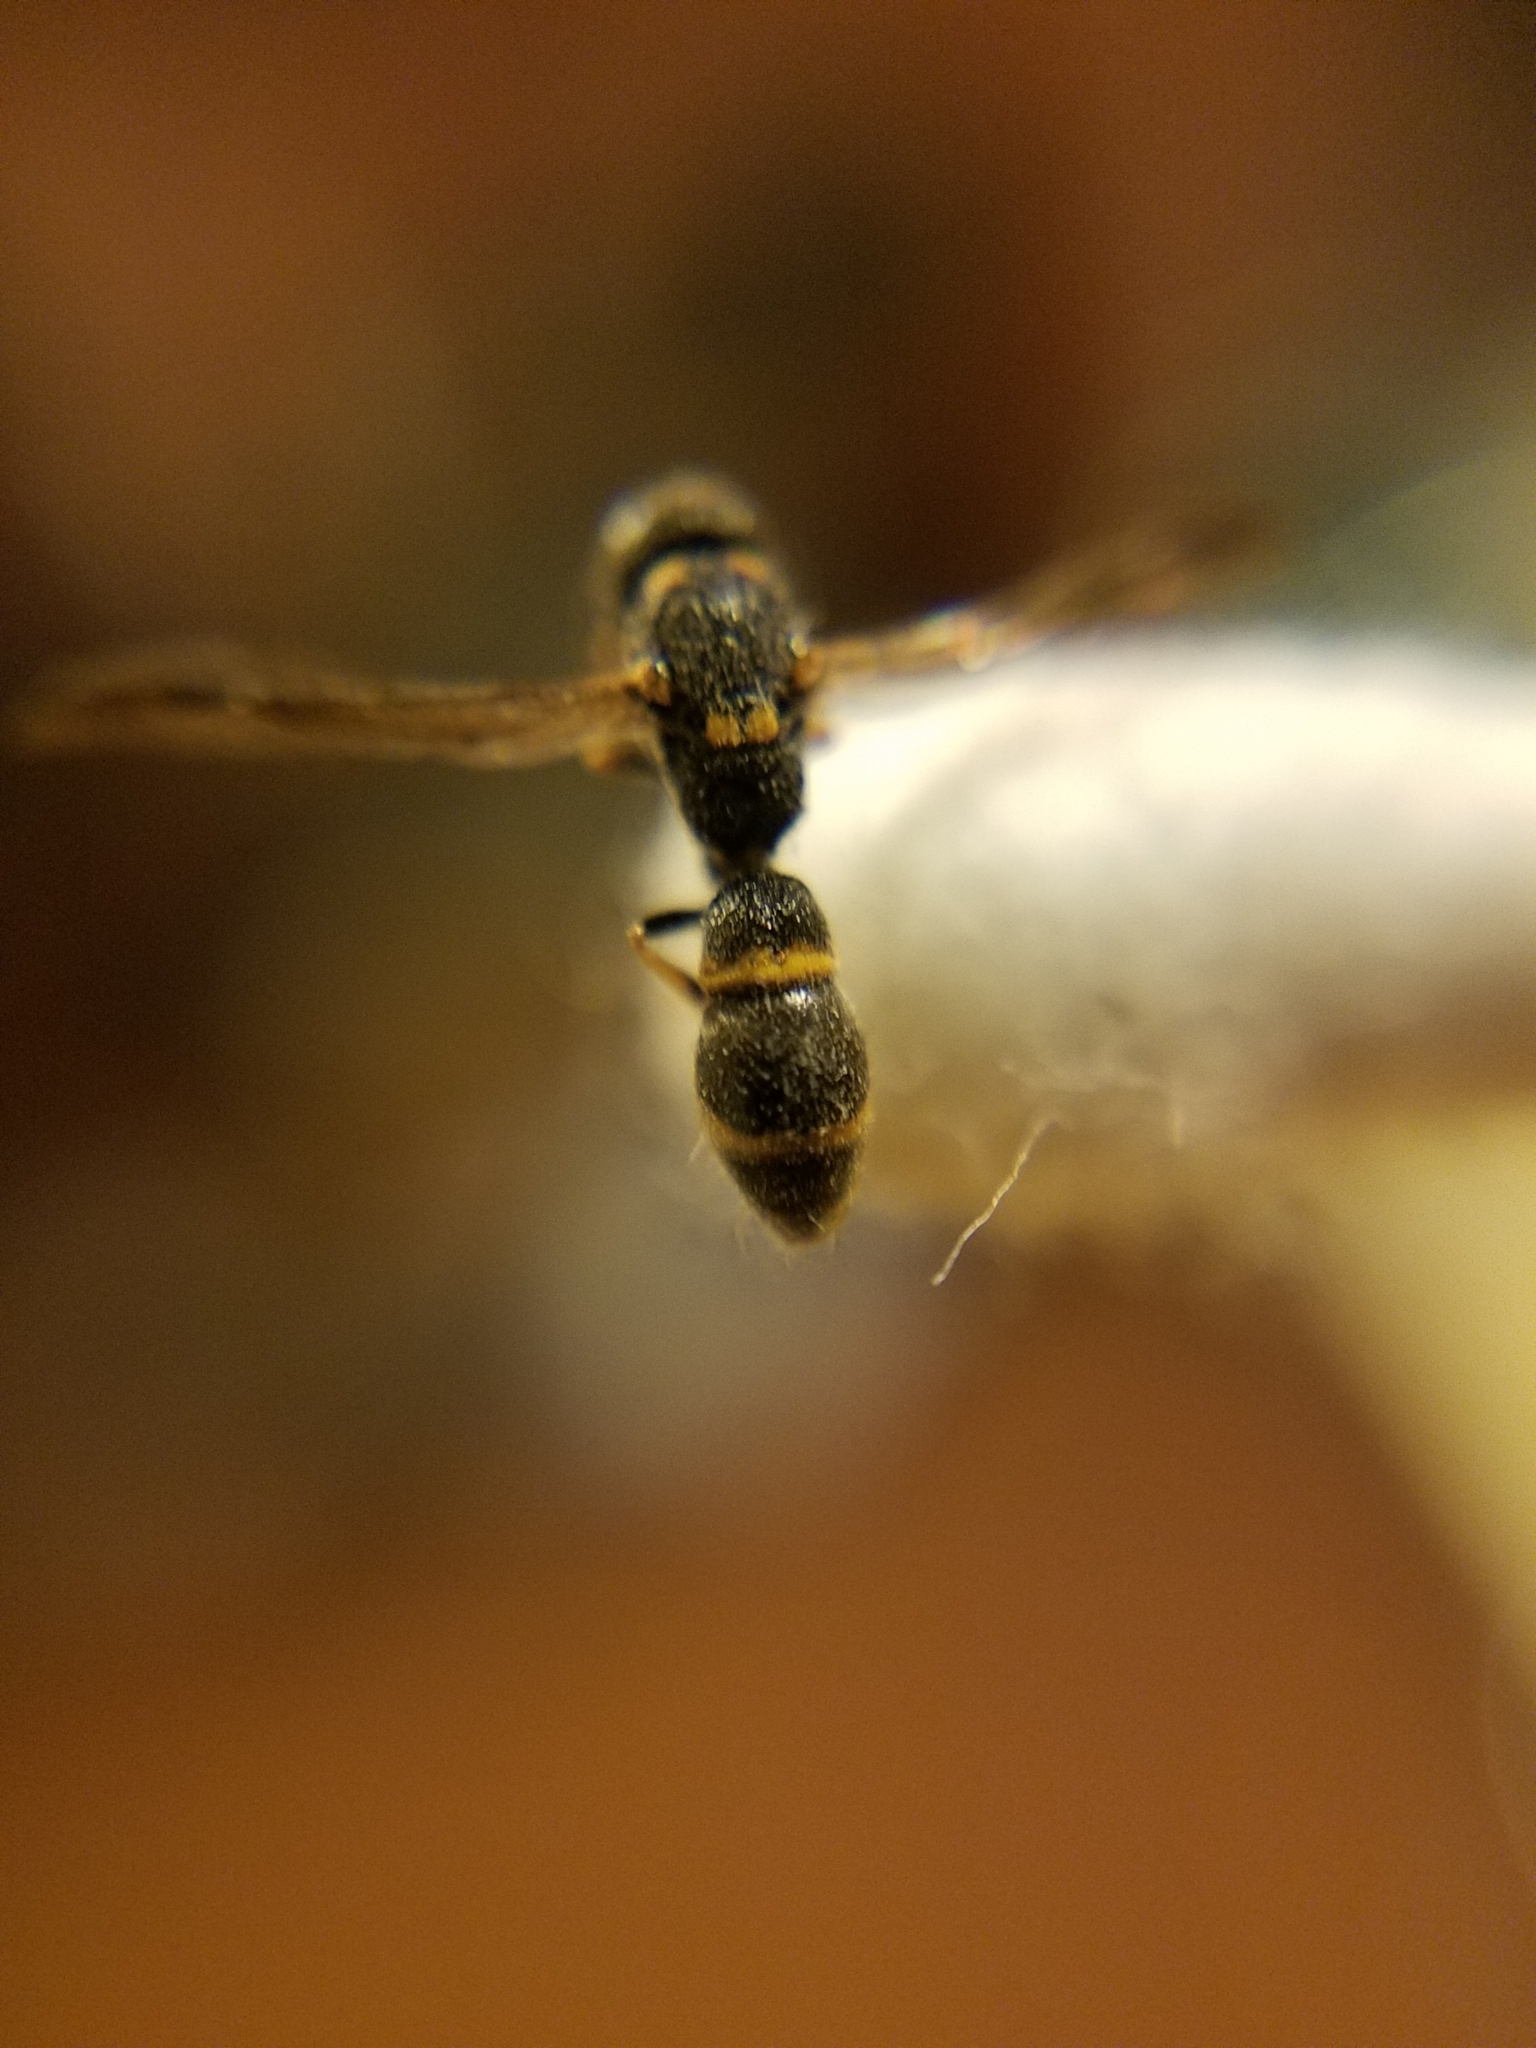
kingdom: Animalia
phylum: Arthropoda
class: Insecta
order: Hymenoptera
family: Eumenidae
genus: Symmorphus
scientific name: Symmorphus
